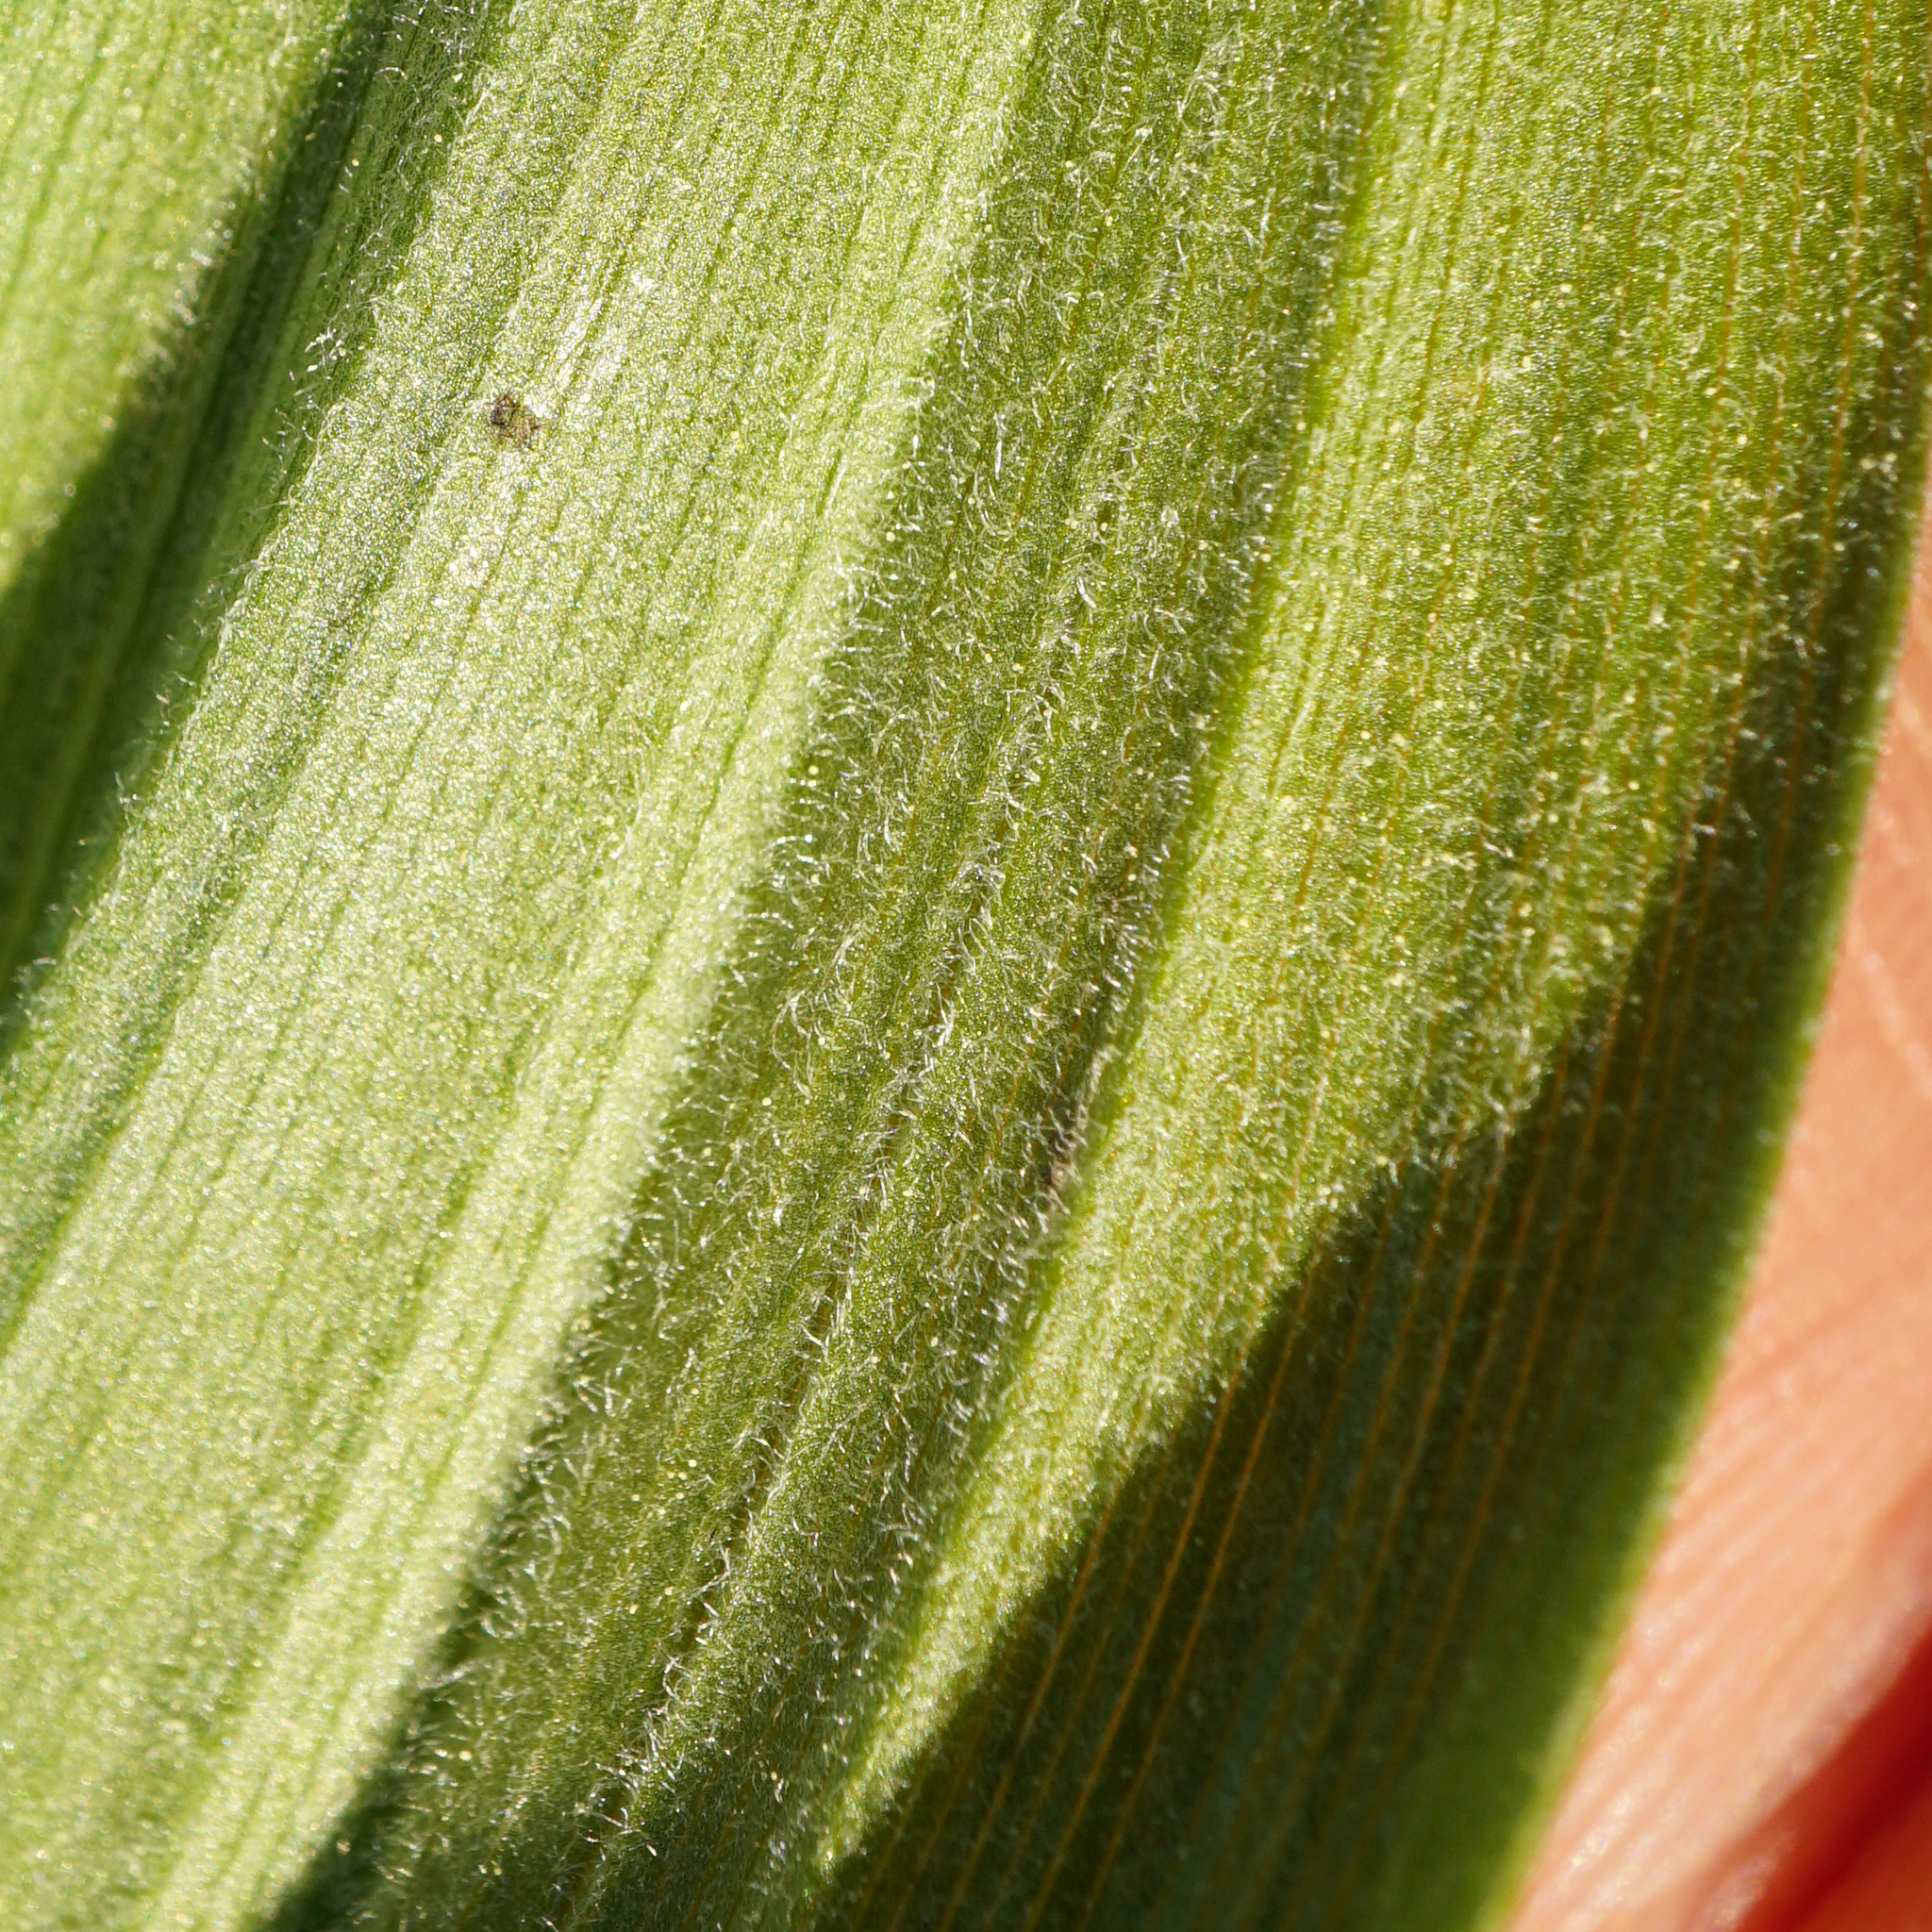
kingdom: Plantae
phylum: Tracheophyta
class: Liliopsida
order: Liliales
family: Melanthiaceae
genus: Veratrum
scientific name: Veratrum album
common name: White veratrum
